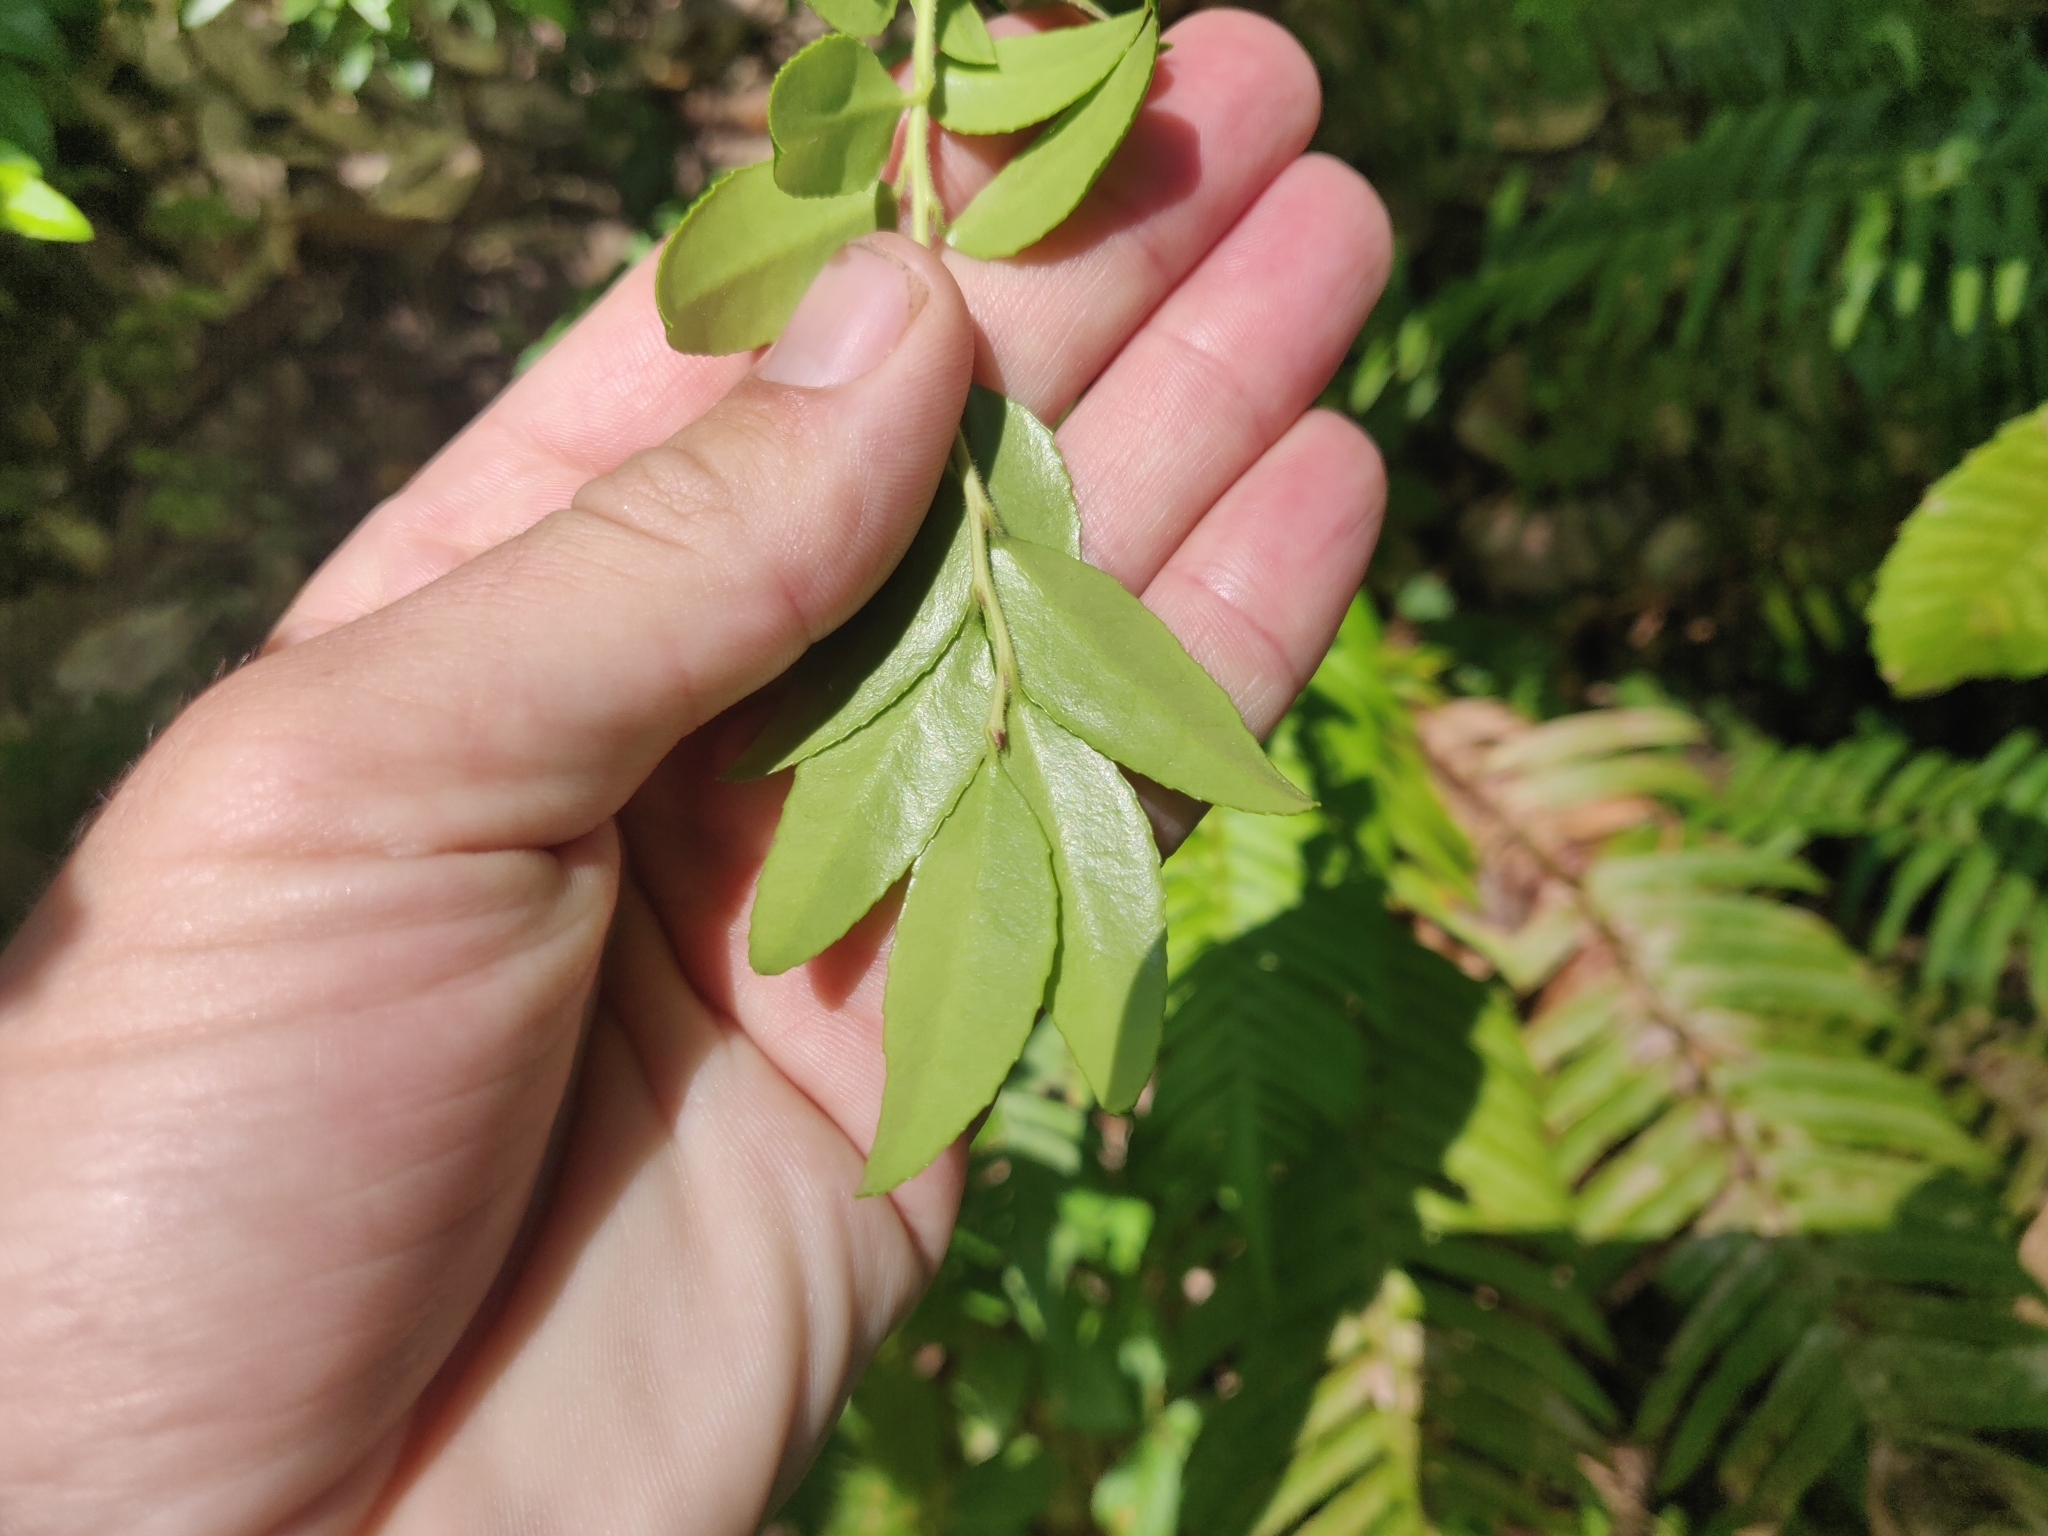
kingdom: Plantae
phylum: Tracheophyta
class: Magnoliopsida
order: Ericales
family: Ericaceae
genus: Vaccinium
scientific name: Vaccinium ovatum
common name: California-huckleberry
